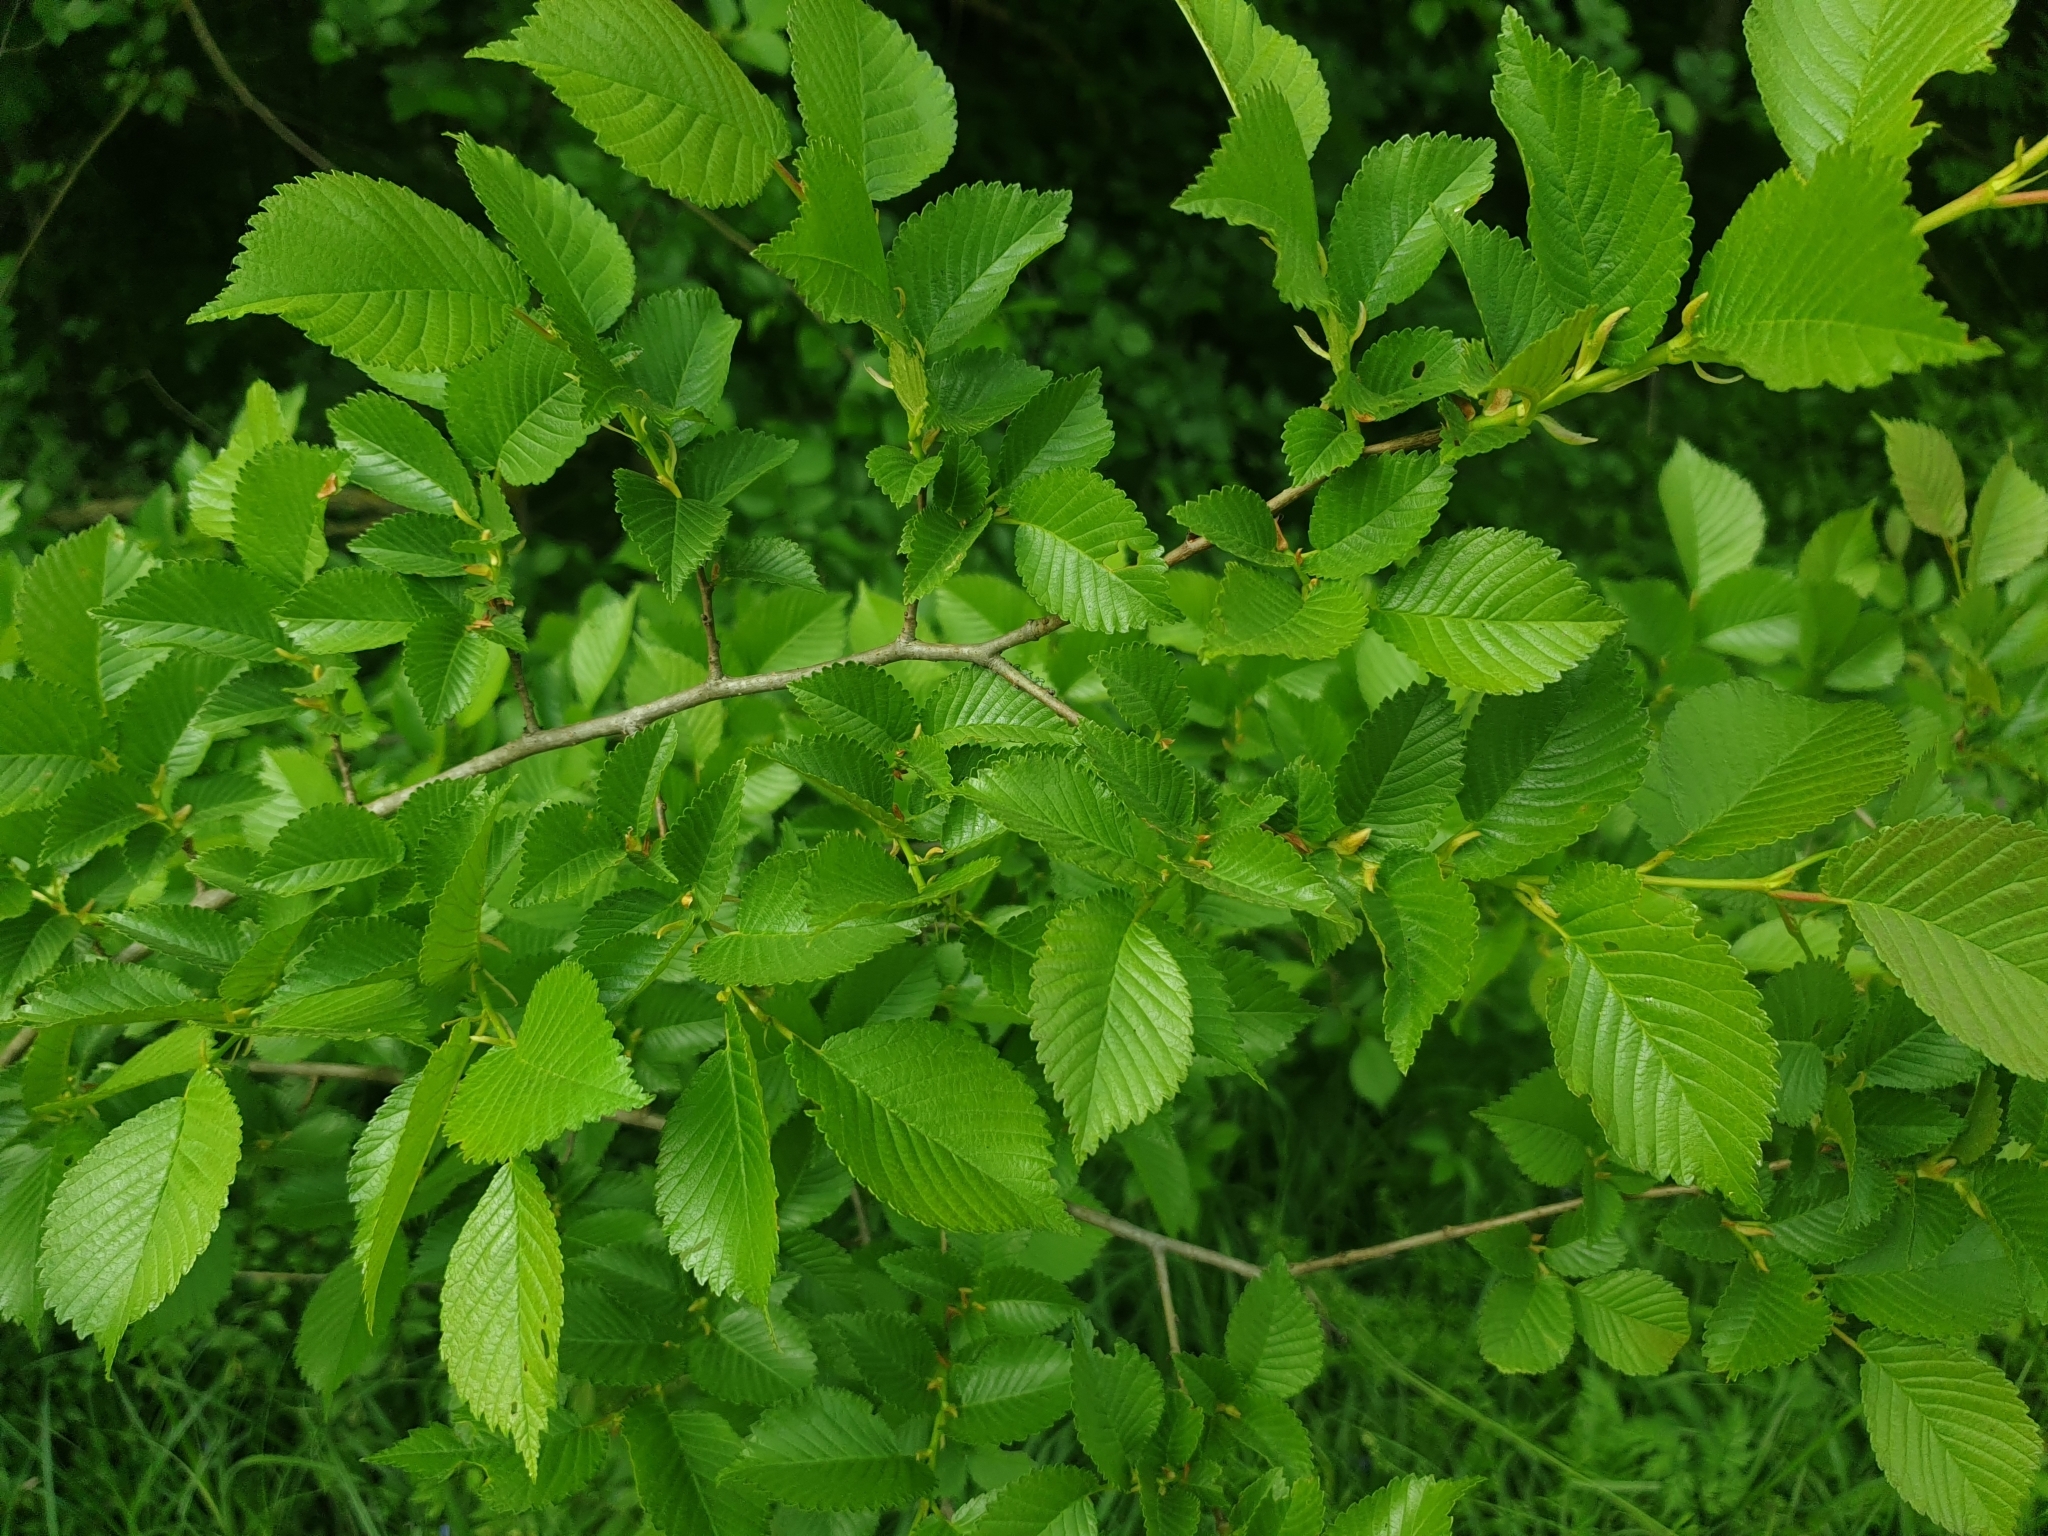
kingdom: Plantae
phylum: Tracheophyta
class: Magnoliopsida
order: Rosales
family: Ulmaceae
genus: Ulmus
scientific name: Ulmus minor
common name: Small-leaved elm
